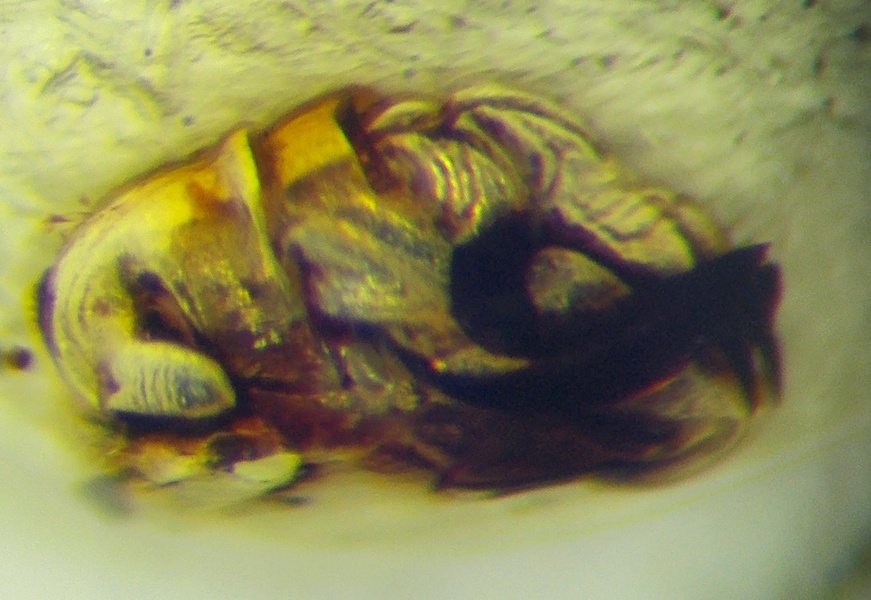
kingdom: Animalia
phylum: Arthropoda
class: Insecta
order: Hemiptera
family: Scutelleridae
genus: Irochrotus
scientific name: Irochrotus lanatus
